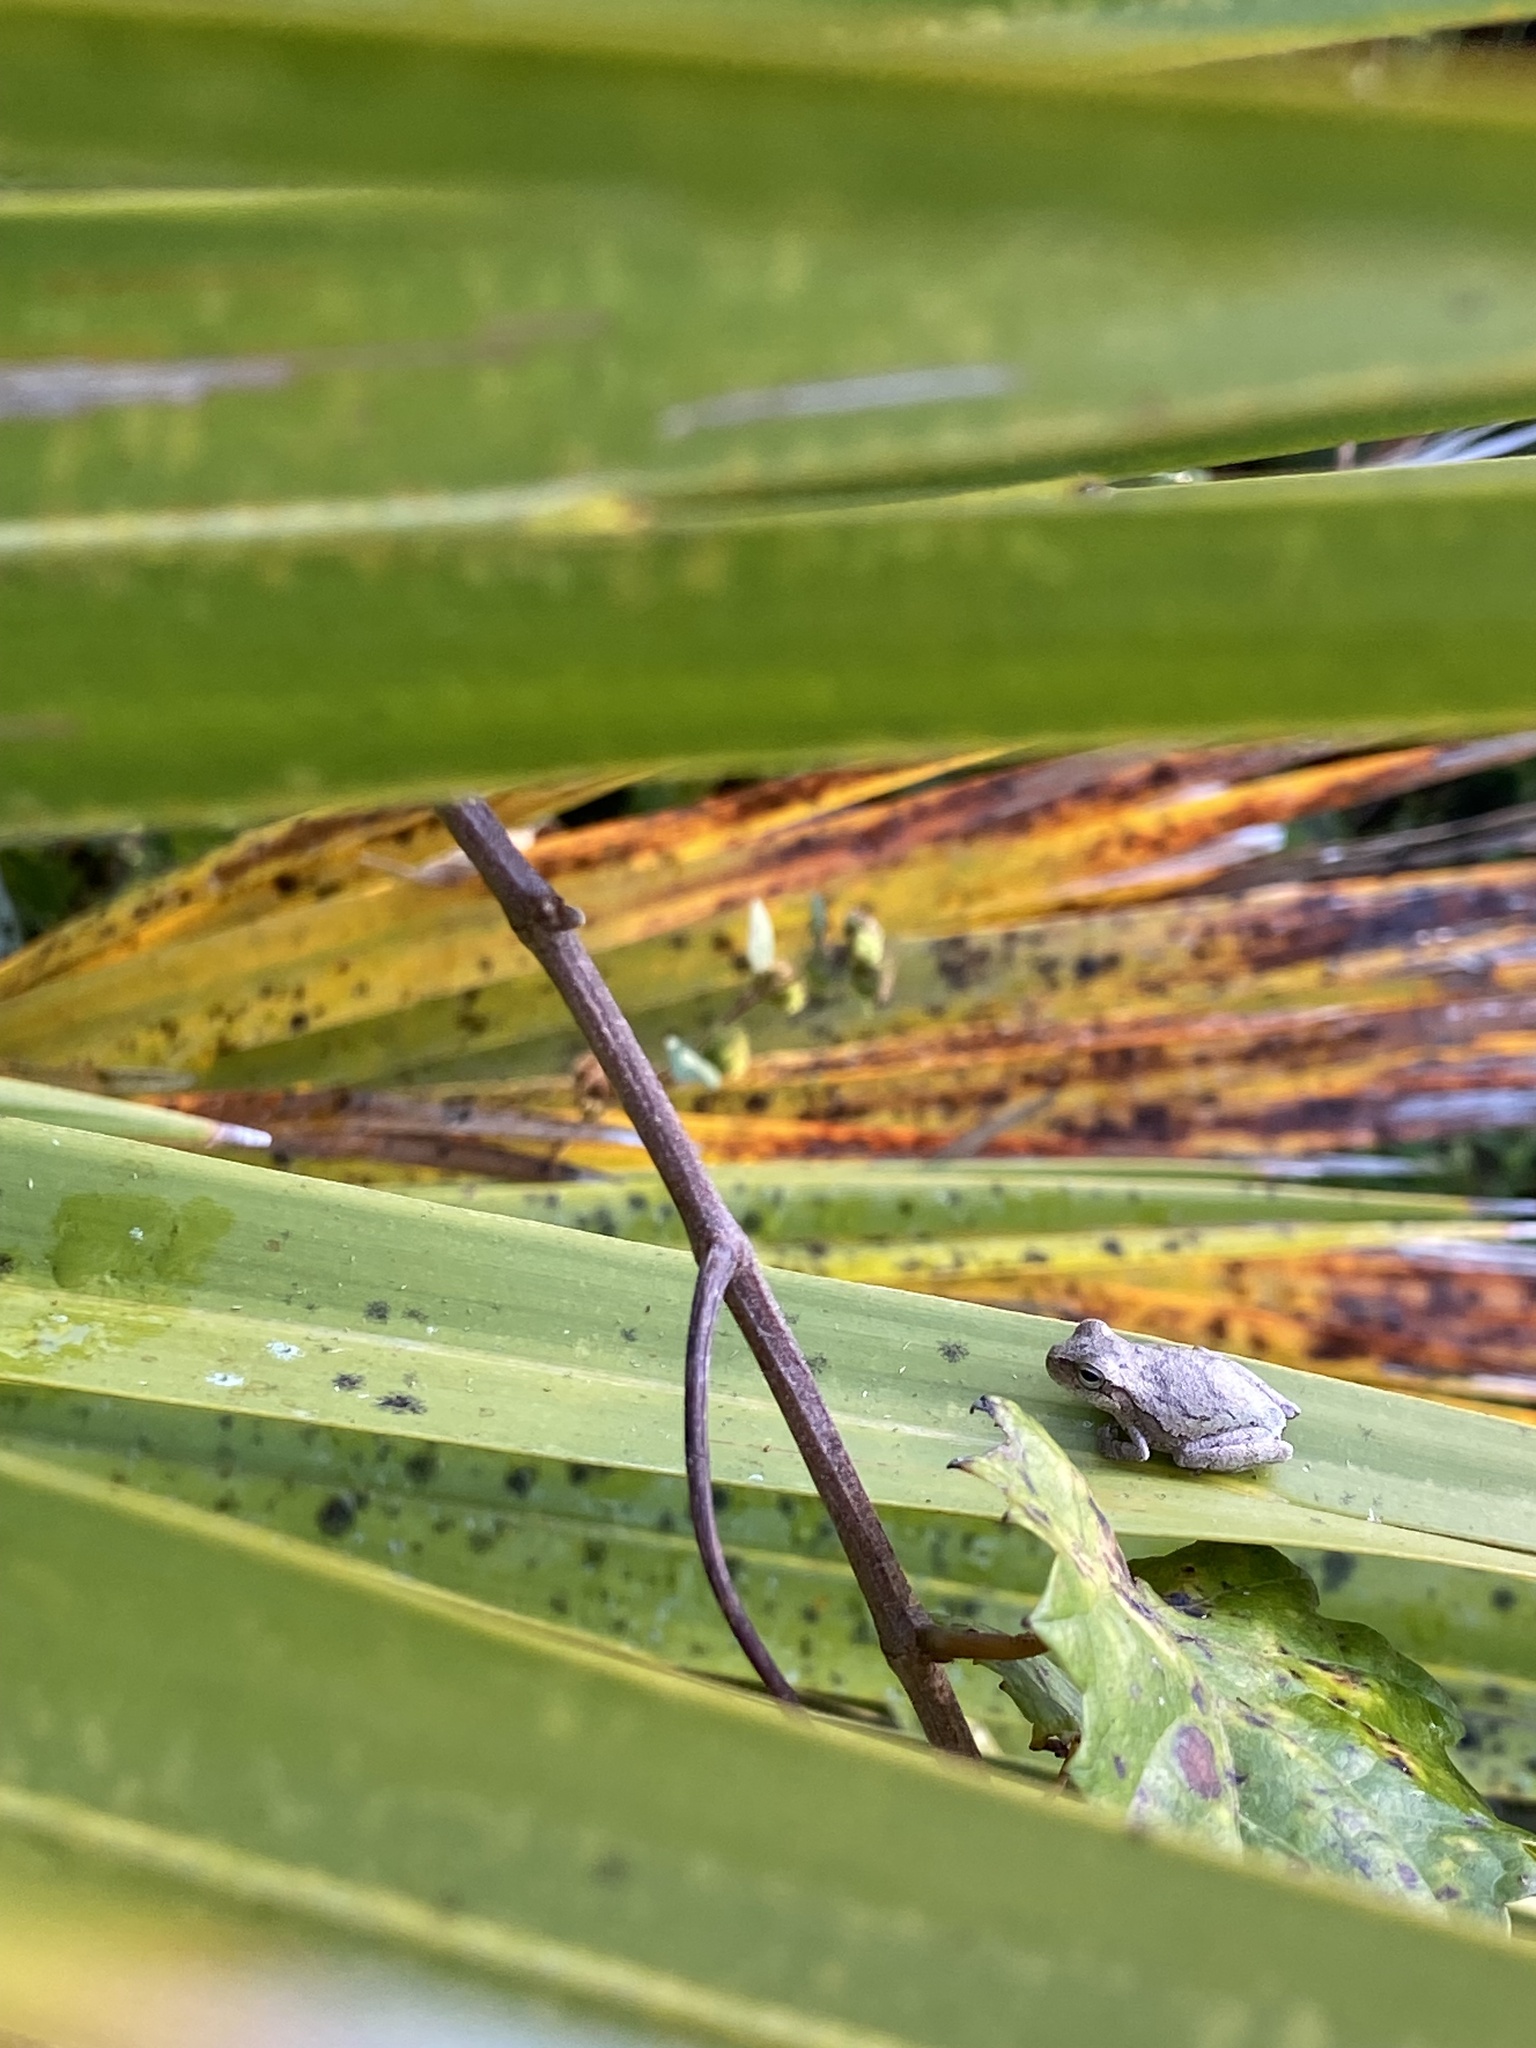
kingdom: Animalia
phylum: Chordata
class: Amphibia
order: Anura
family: Hylidae
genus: Hyla
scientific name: Hyla femoralis
